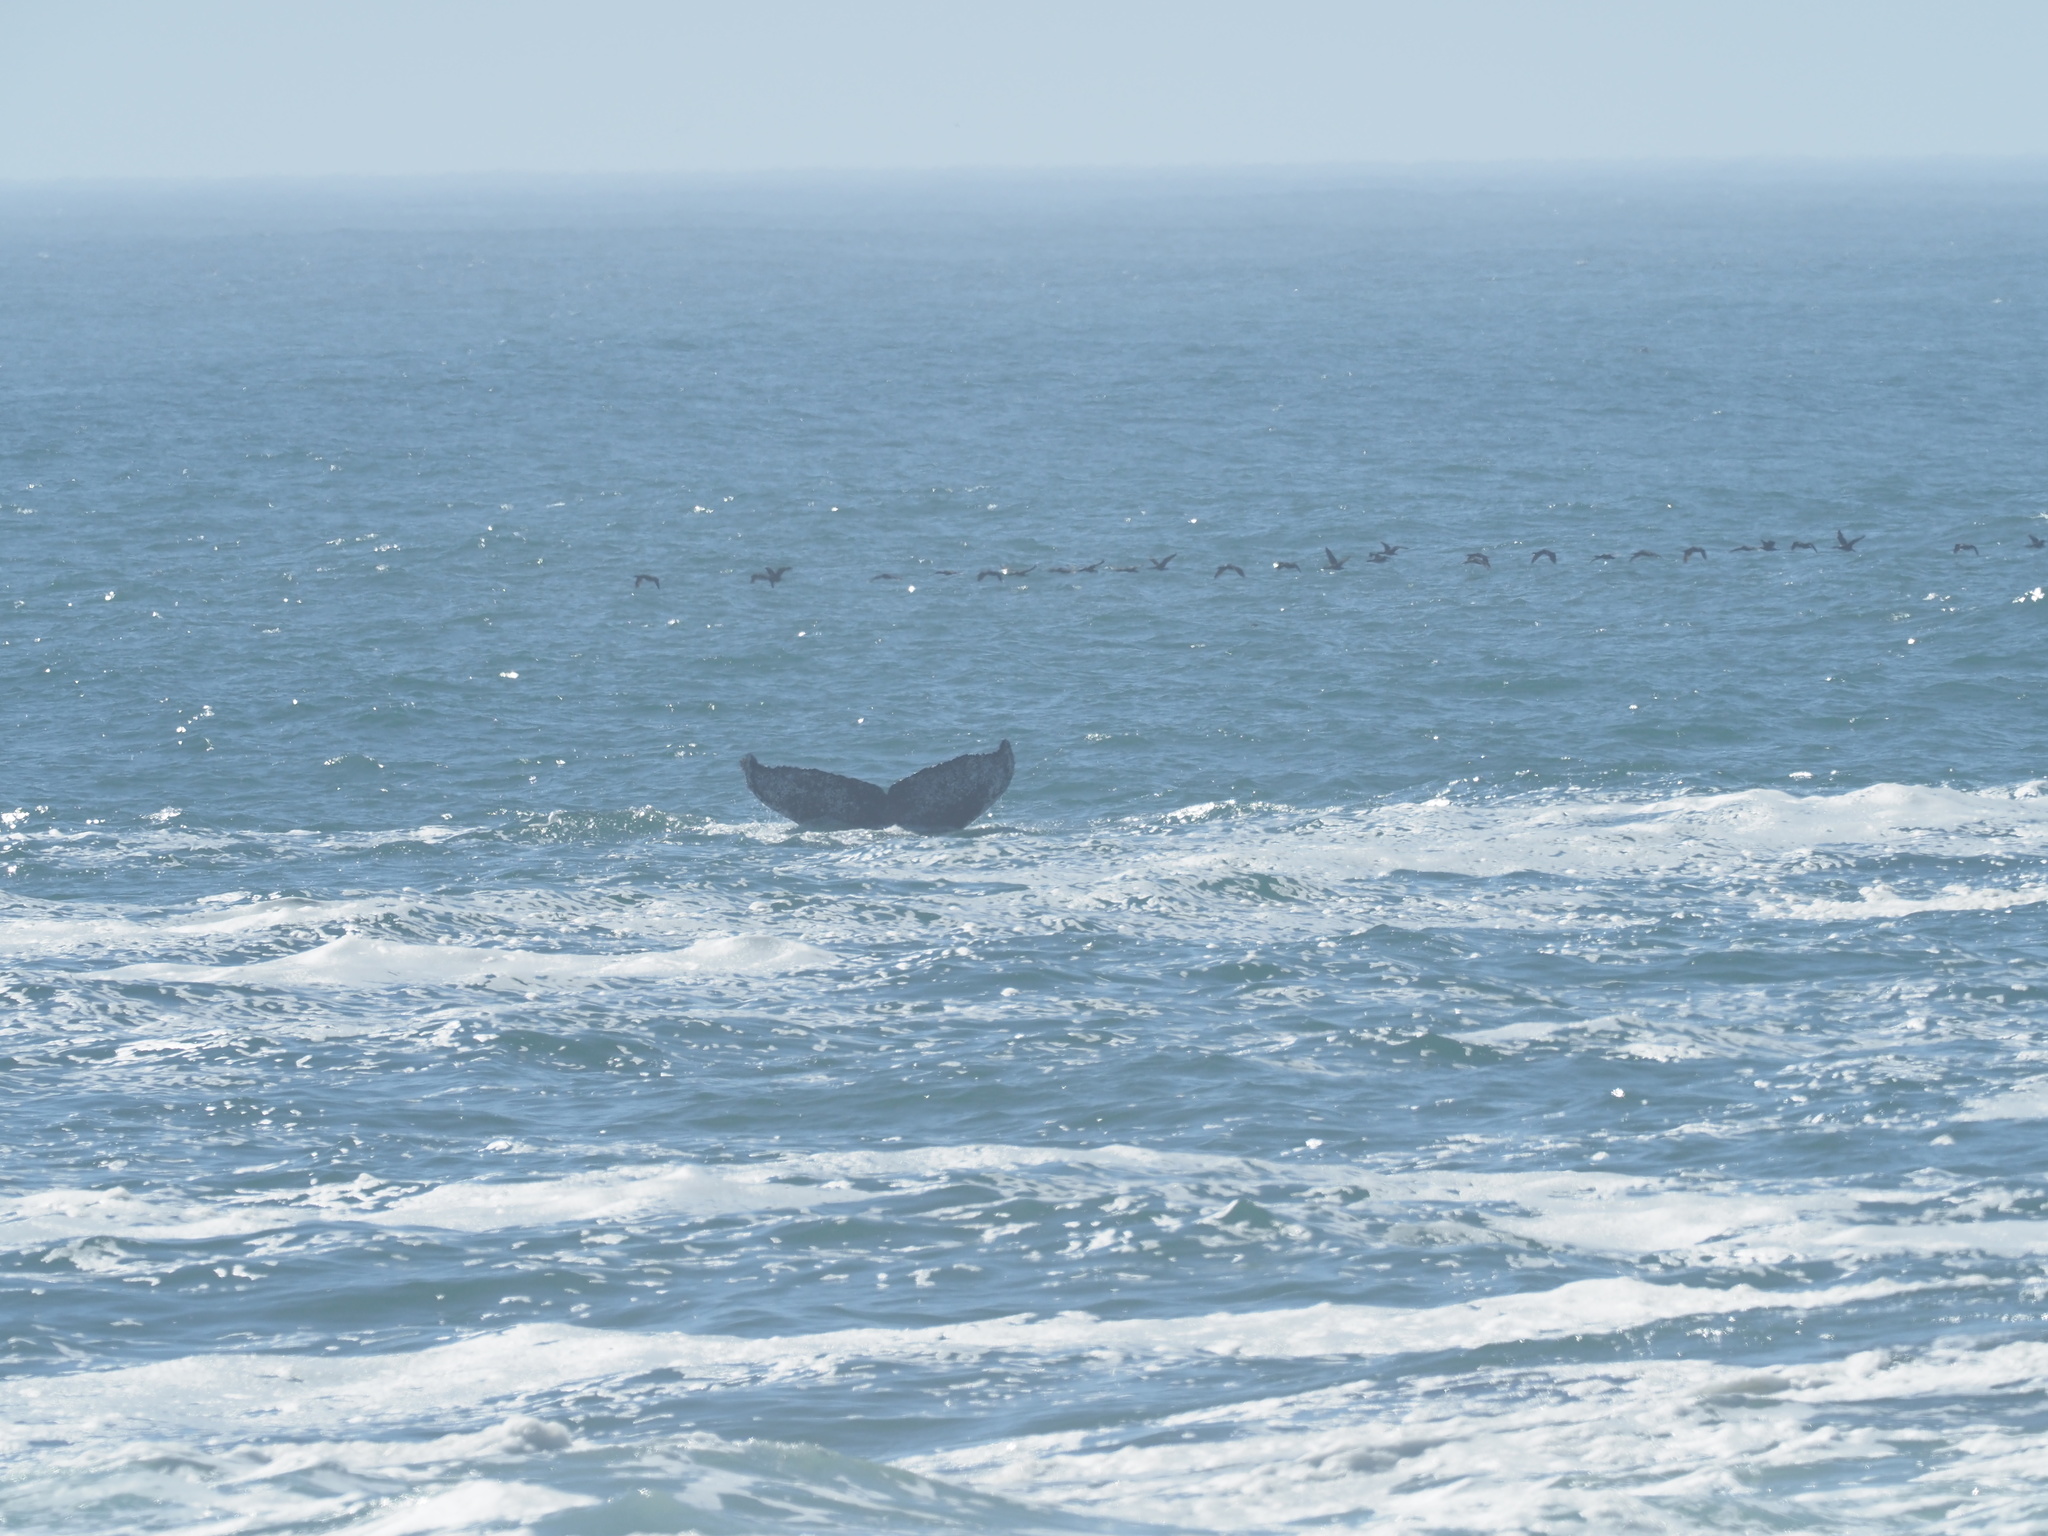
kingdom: Animalia
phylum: Chordata
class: Mammalia
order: Cetacea
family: Balaenopteridae
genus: Megaptera
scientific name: Megaptera novaeangliae
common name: Humpback whale
